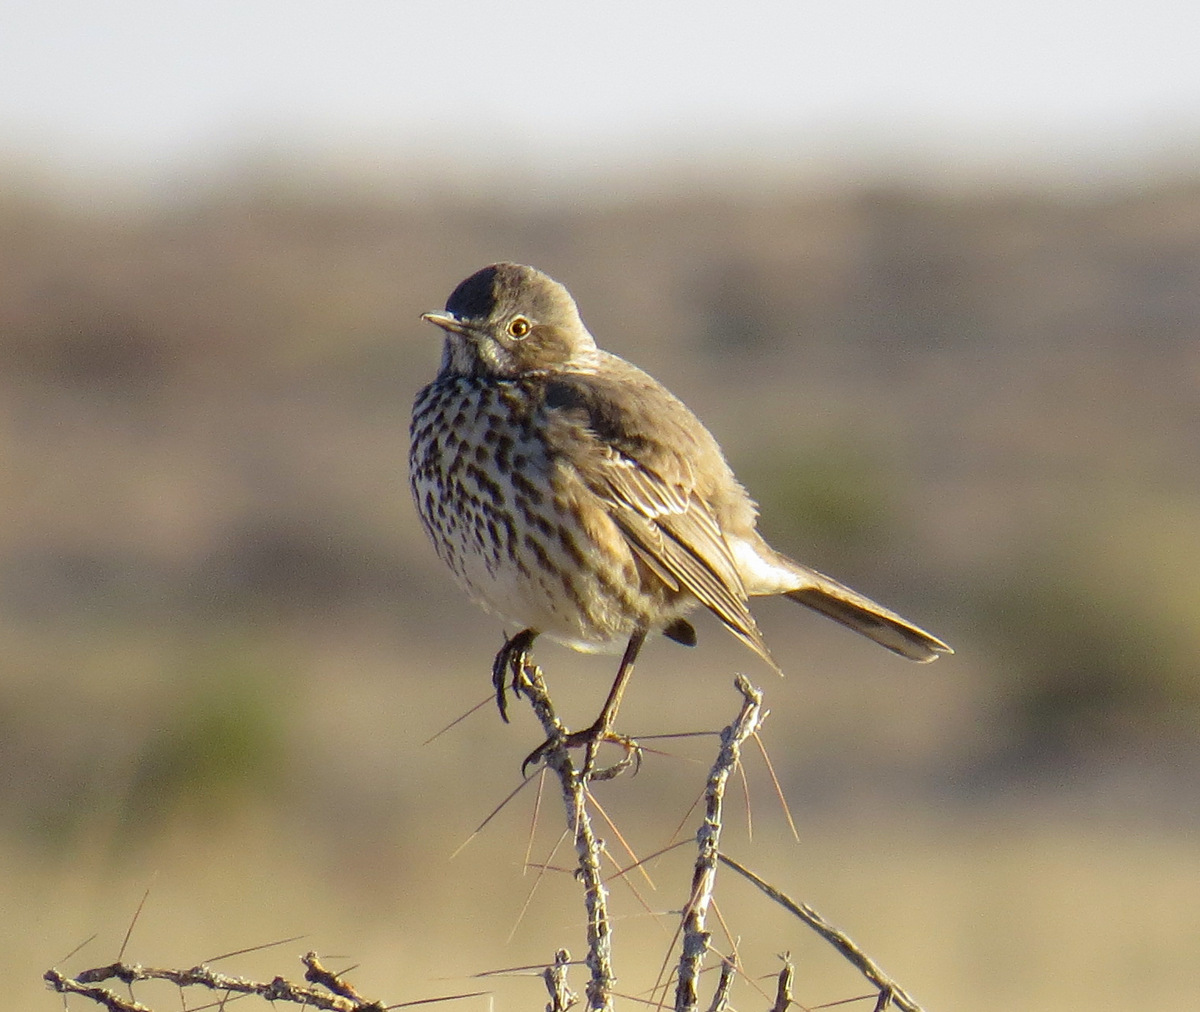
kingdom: Animalia
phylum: Chordata
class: Aves
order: Passeriformes
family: Mimidae
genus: Oreoscoptes
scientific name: Oreoscoptes montanus
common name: Sage thrasher
